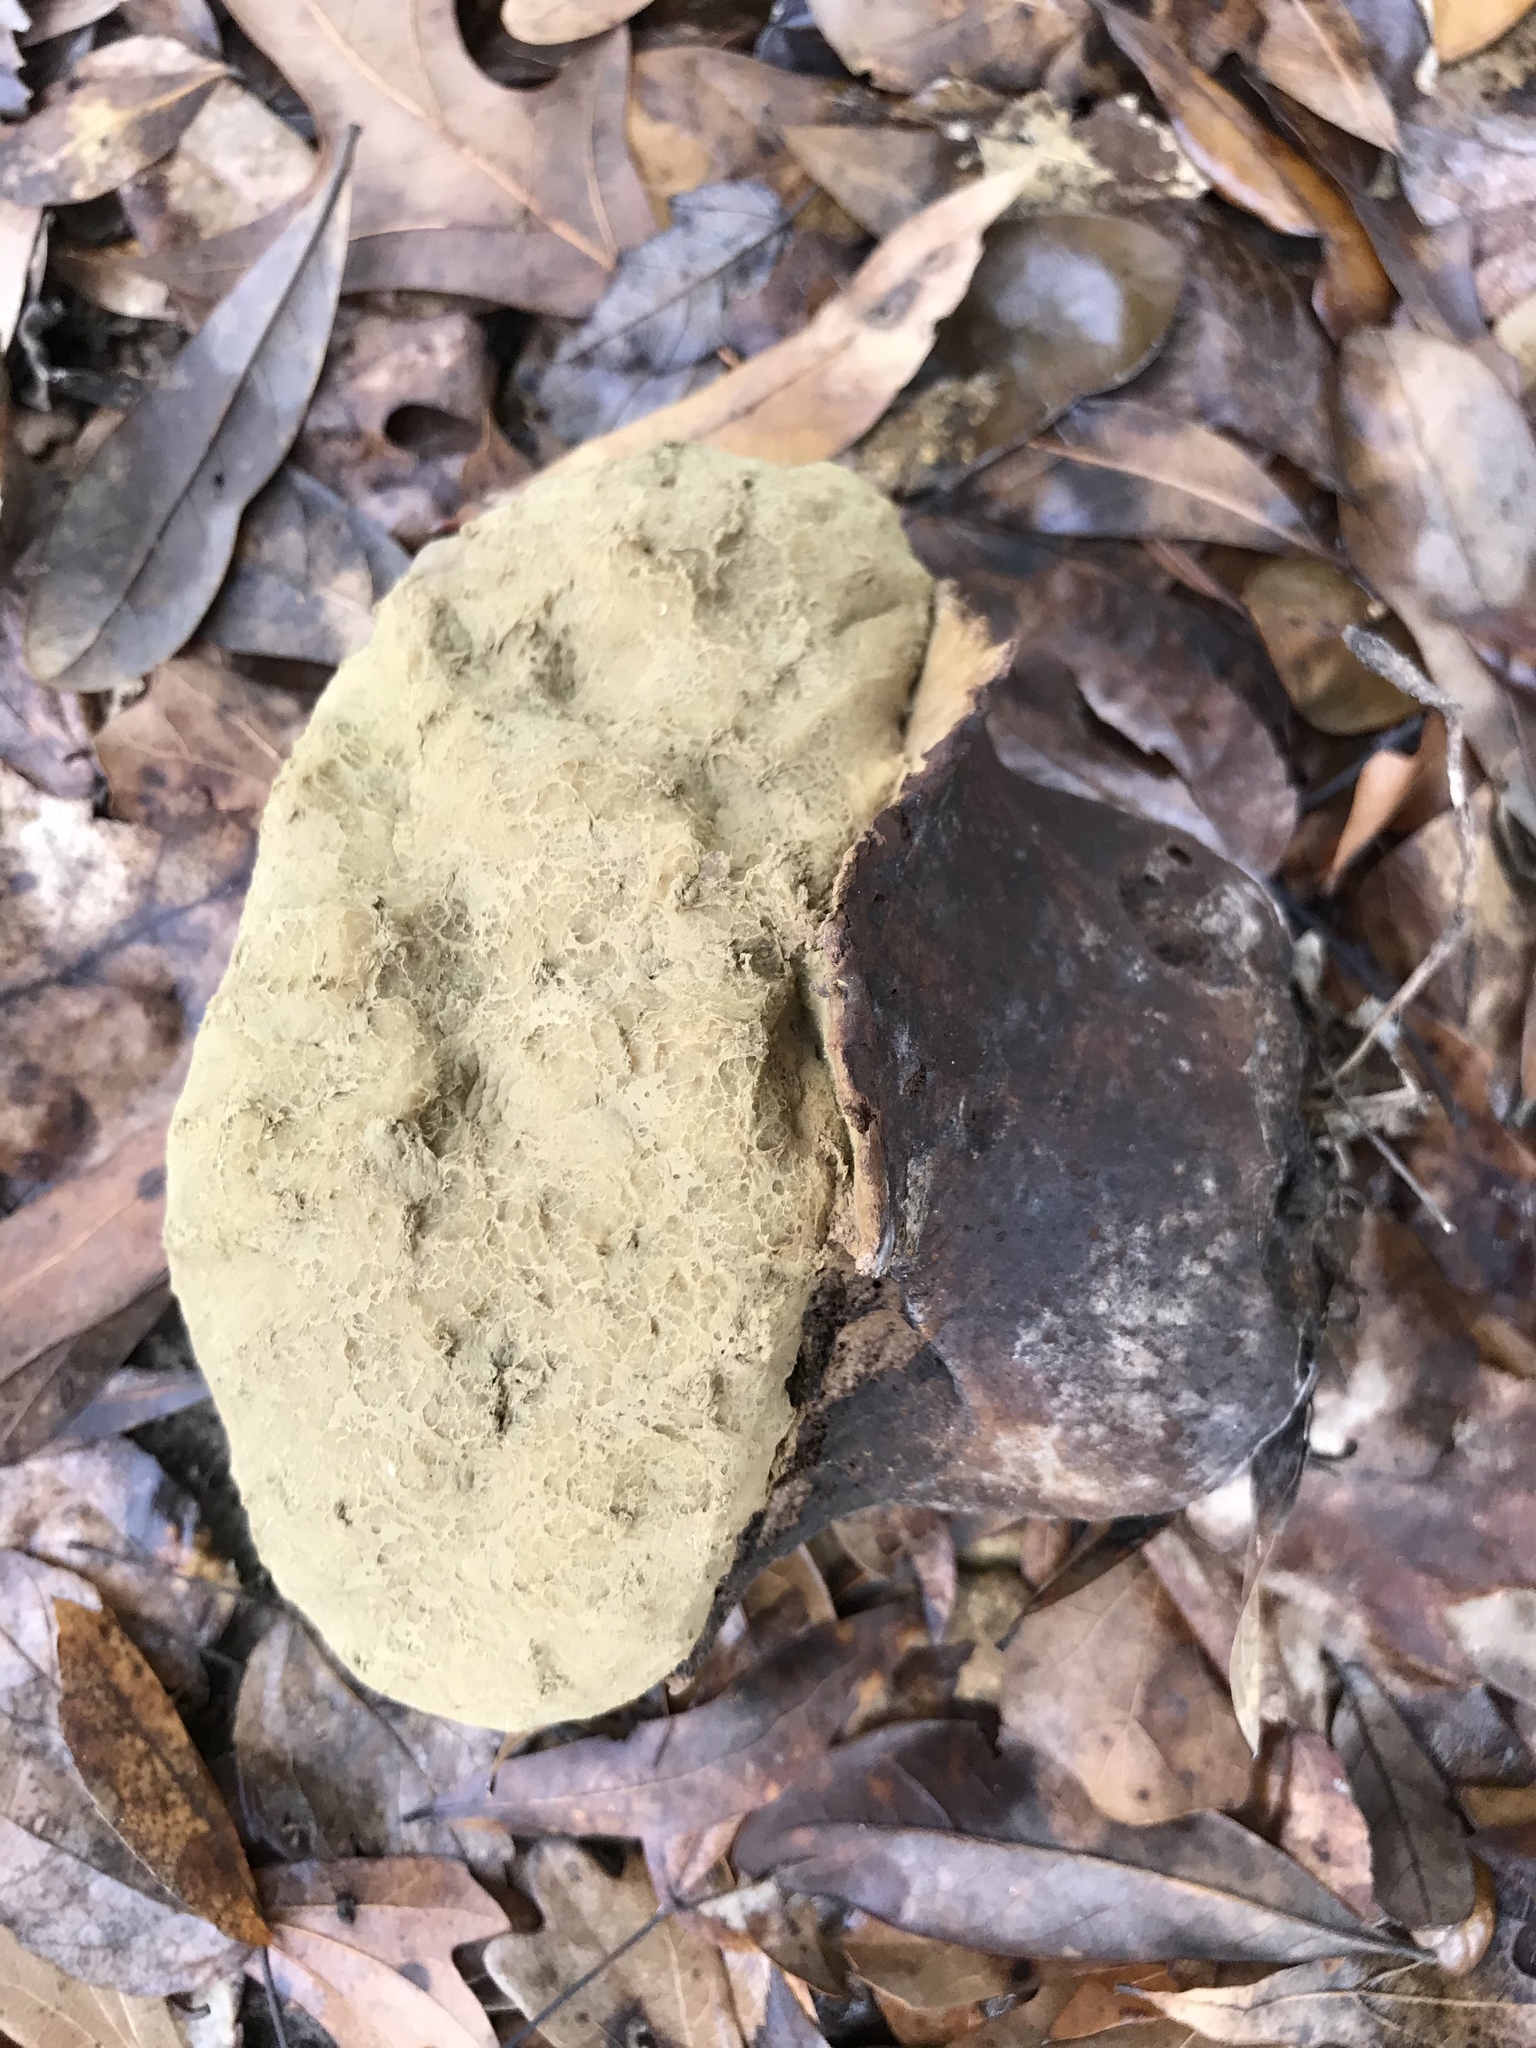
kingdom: Fungi
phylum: Basidiomycota
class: Agaricomycetes
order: Agaricales
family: Lycoperdaceae
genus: Calvatia
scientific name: Calvatia cyathiformis
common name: Purple-spored puffball
